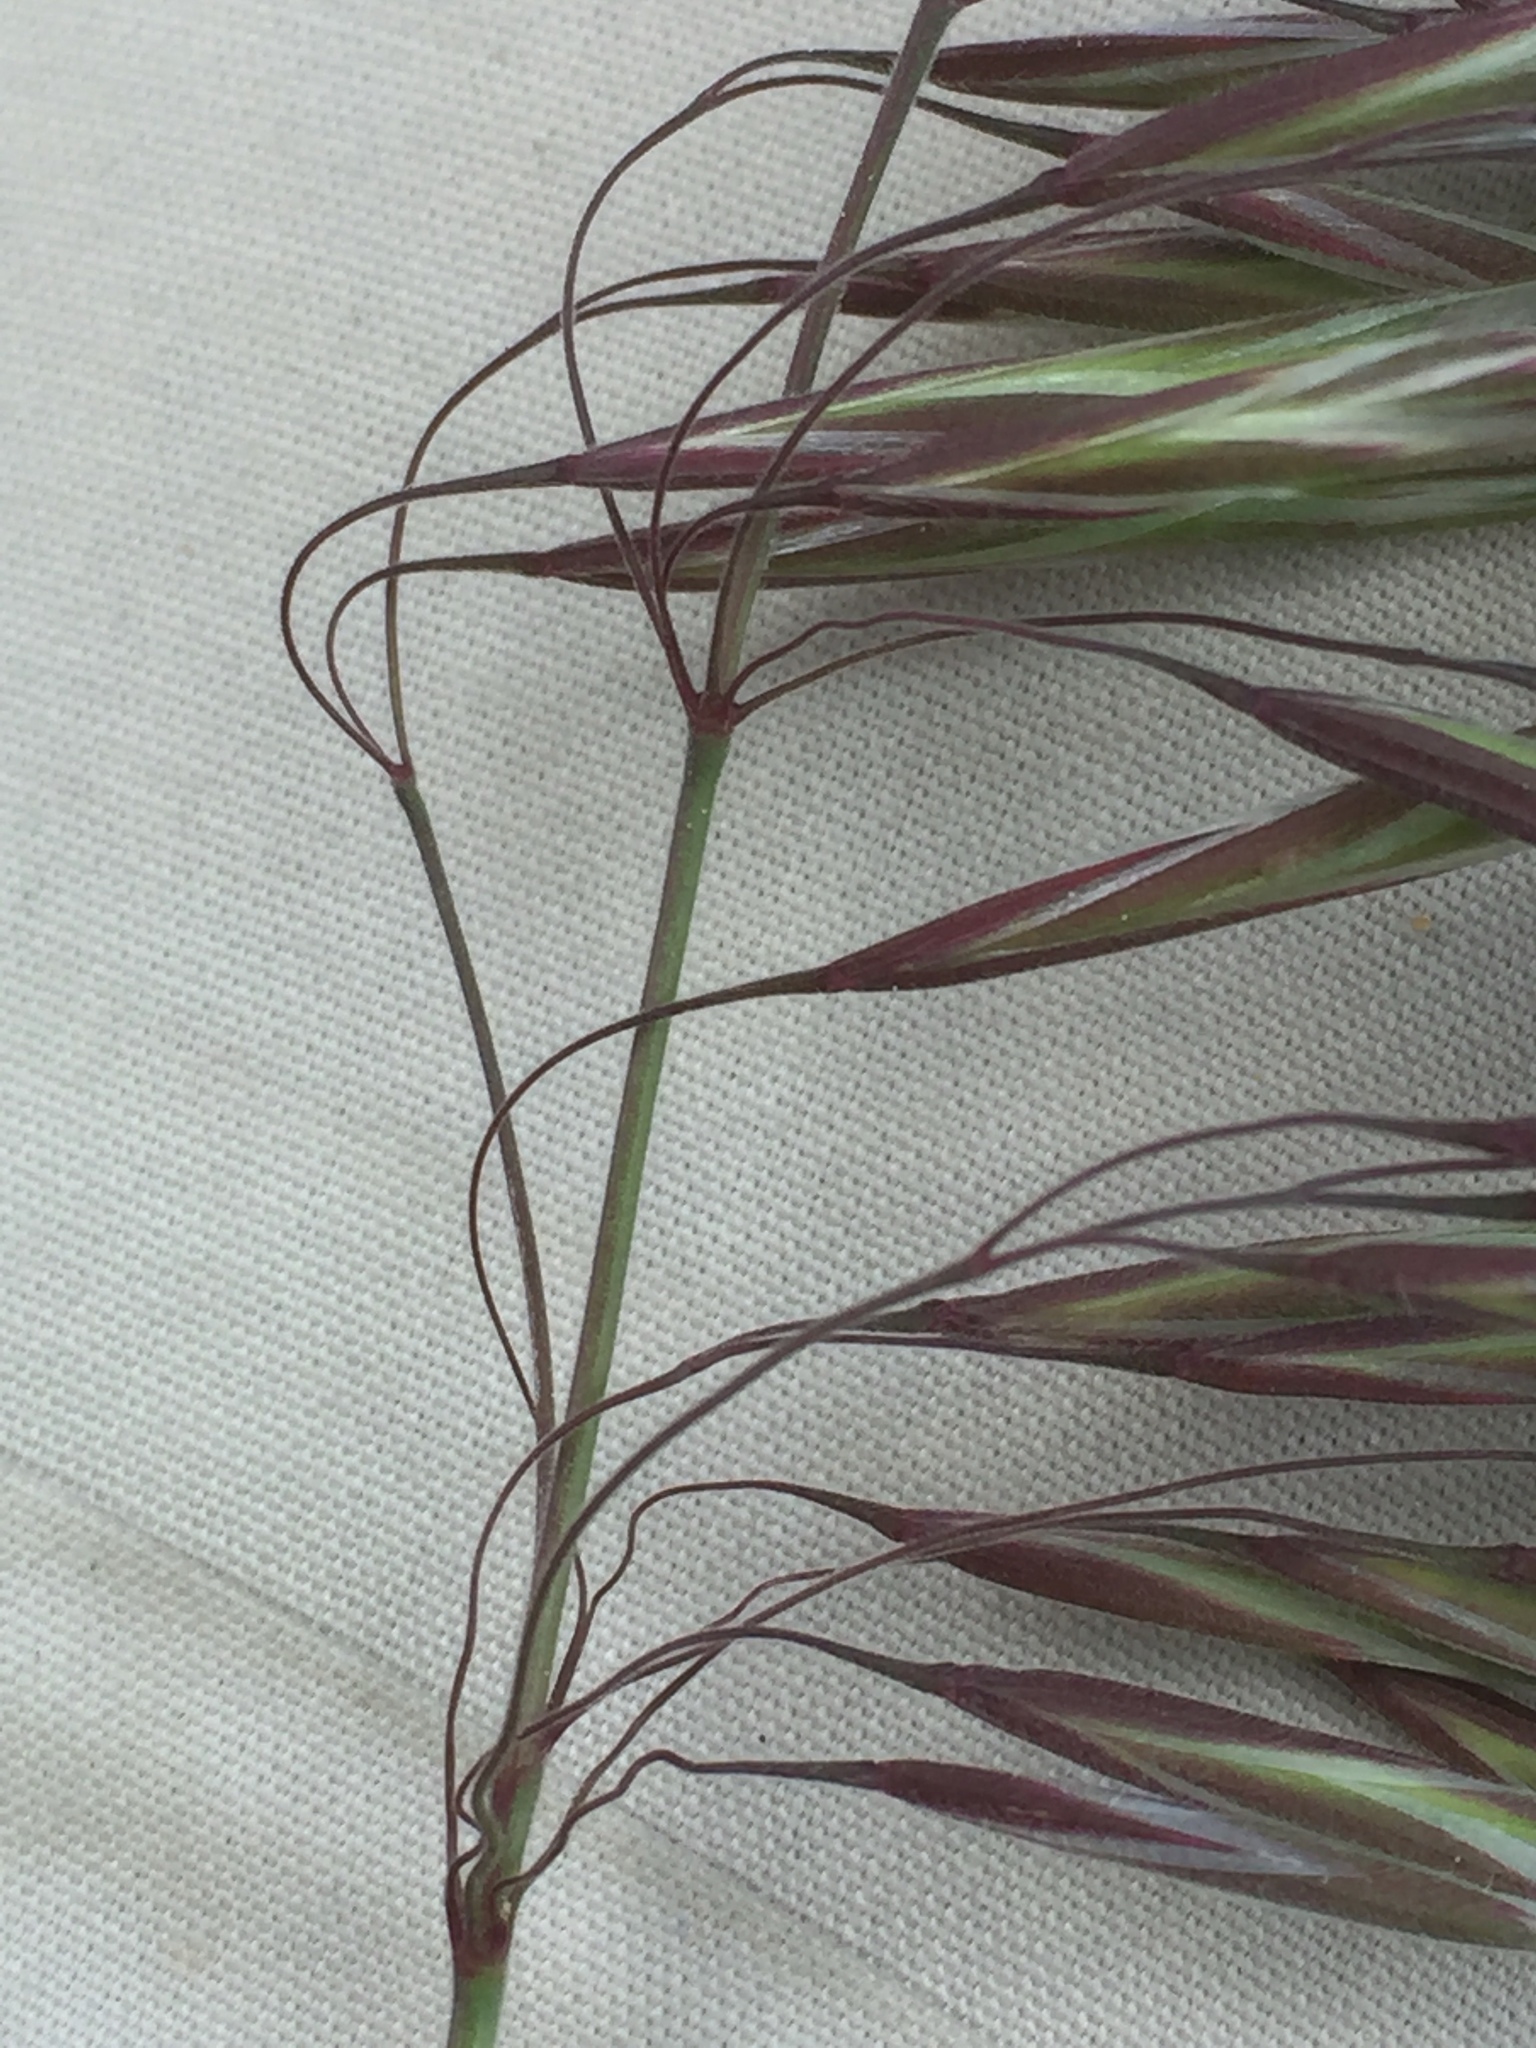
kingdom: Plantae
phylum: Tracheophyta
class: Liliopsida
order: Poales
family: Poaceae
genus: Bromus
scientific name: Bromus tectorum
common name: Cheatgrass
